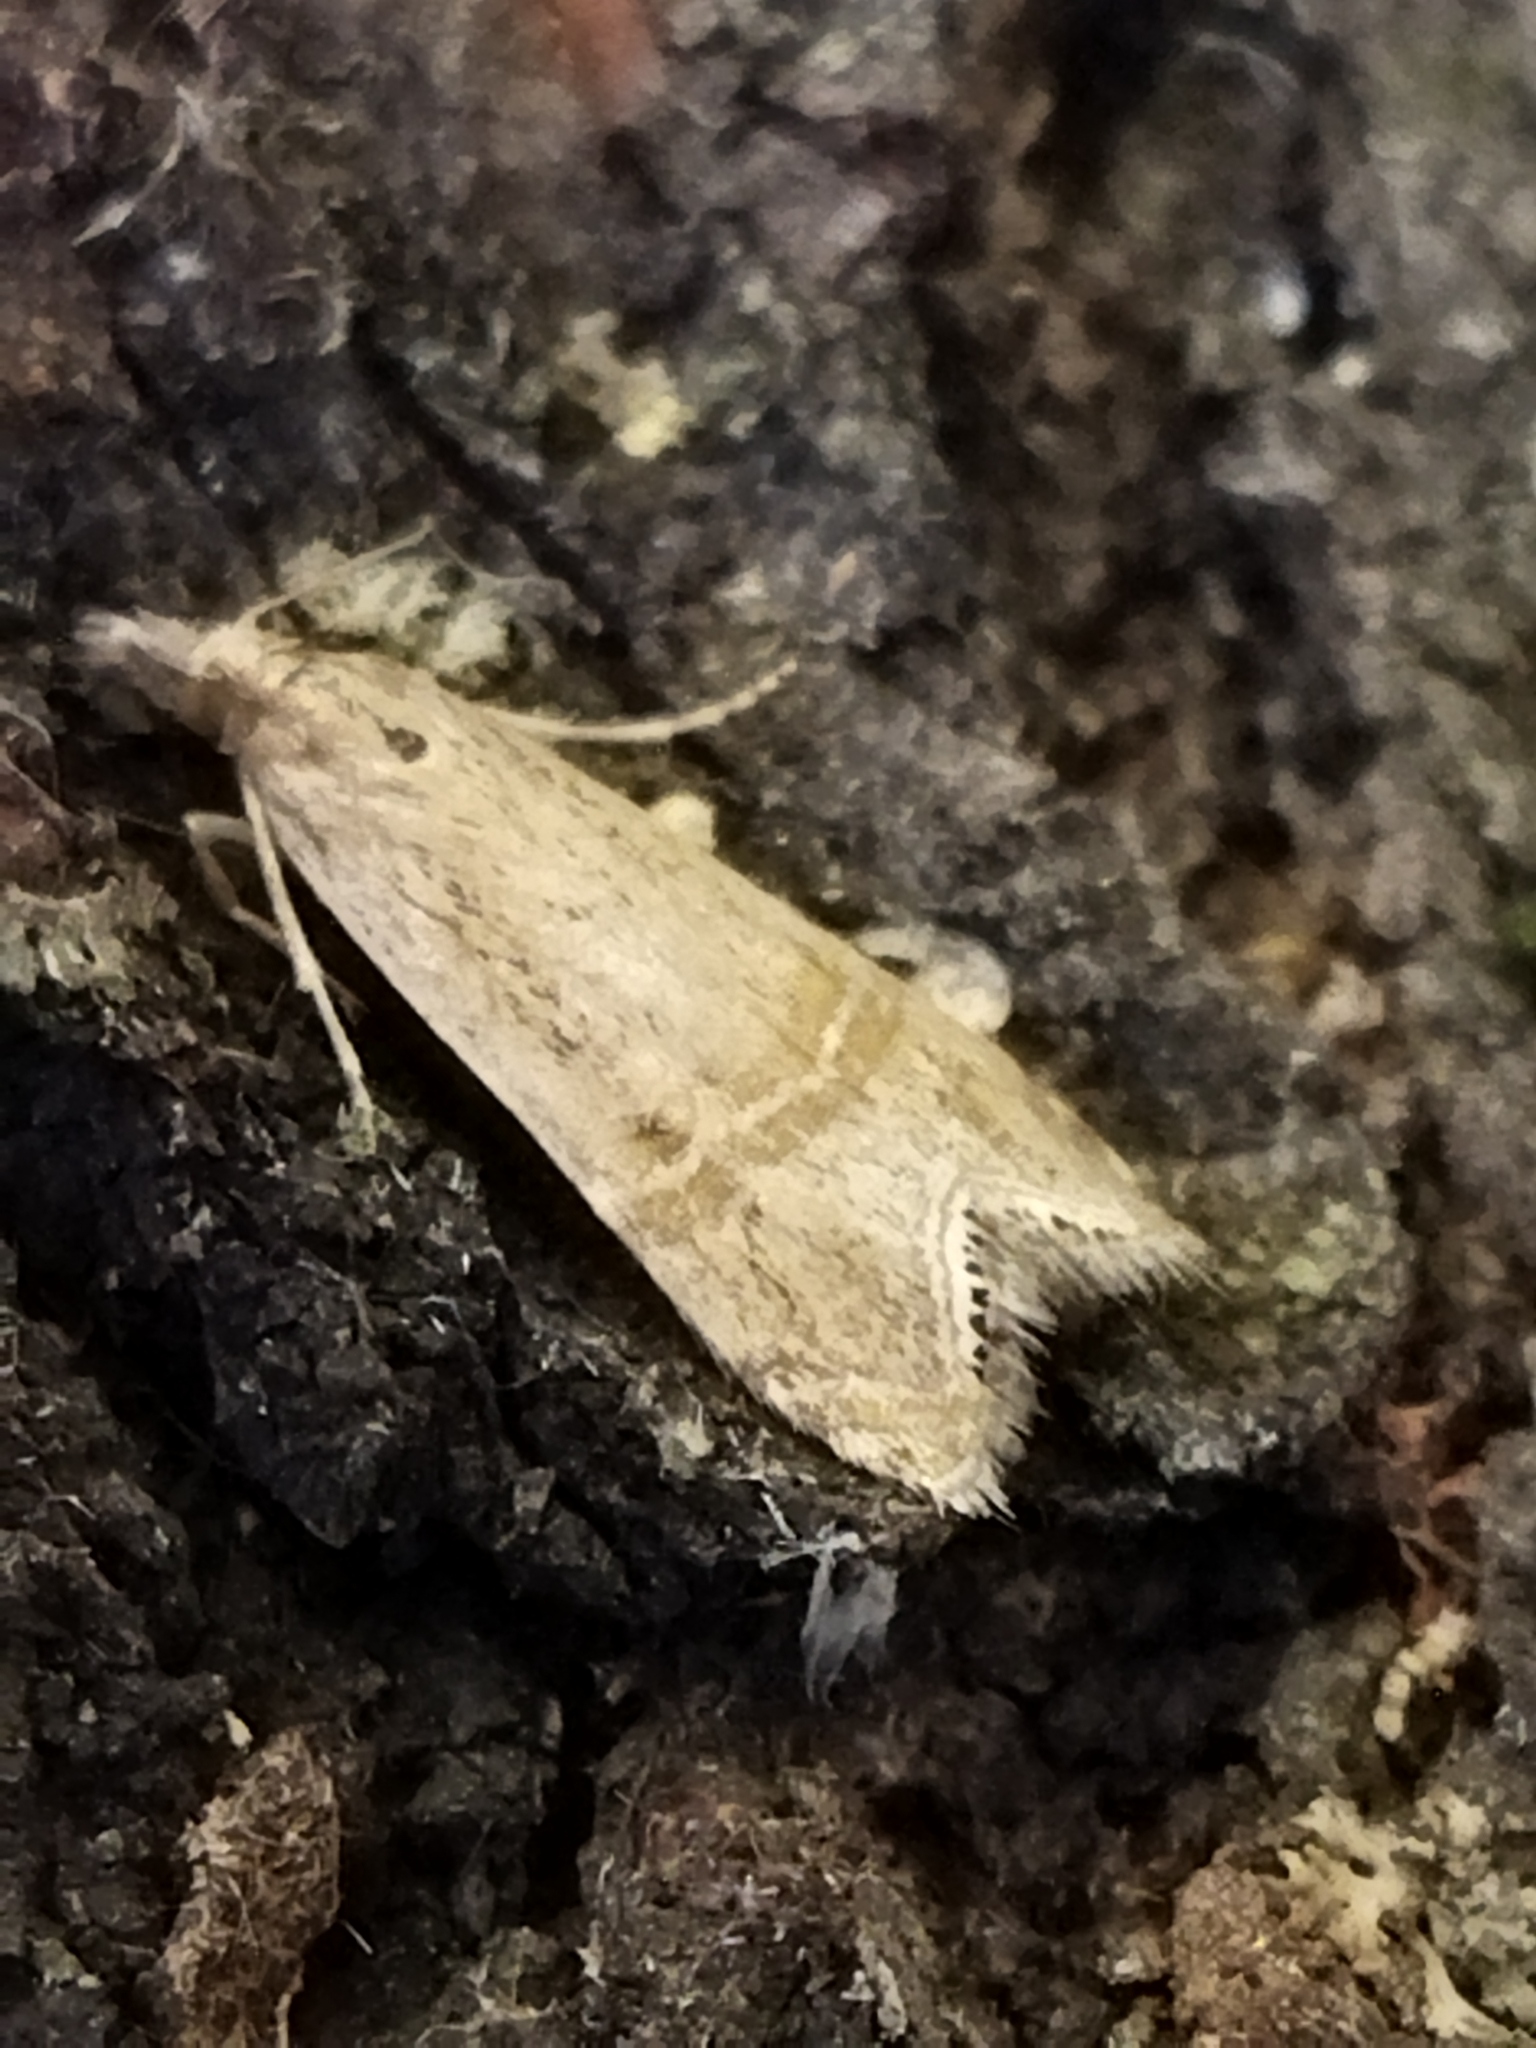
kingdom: Animalia
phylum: Arthropoda
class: Insecta
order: Lepidoptera
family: Crambidae
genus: Euchromius
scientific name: Euchromius ocellea
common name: Necklace veneer moth
